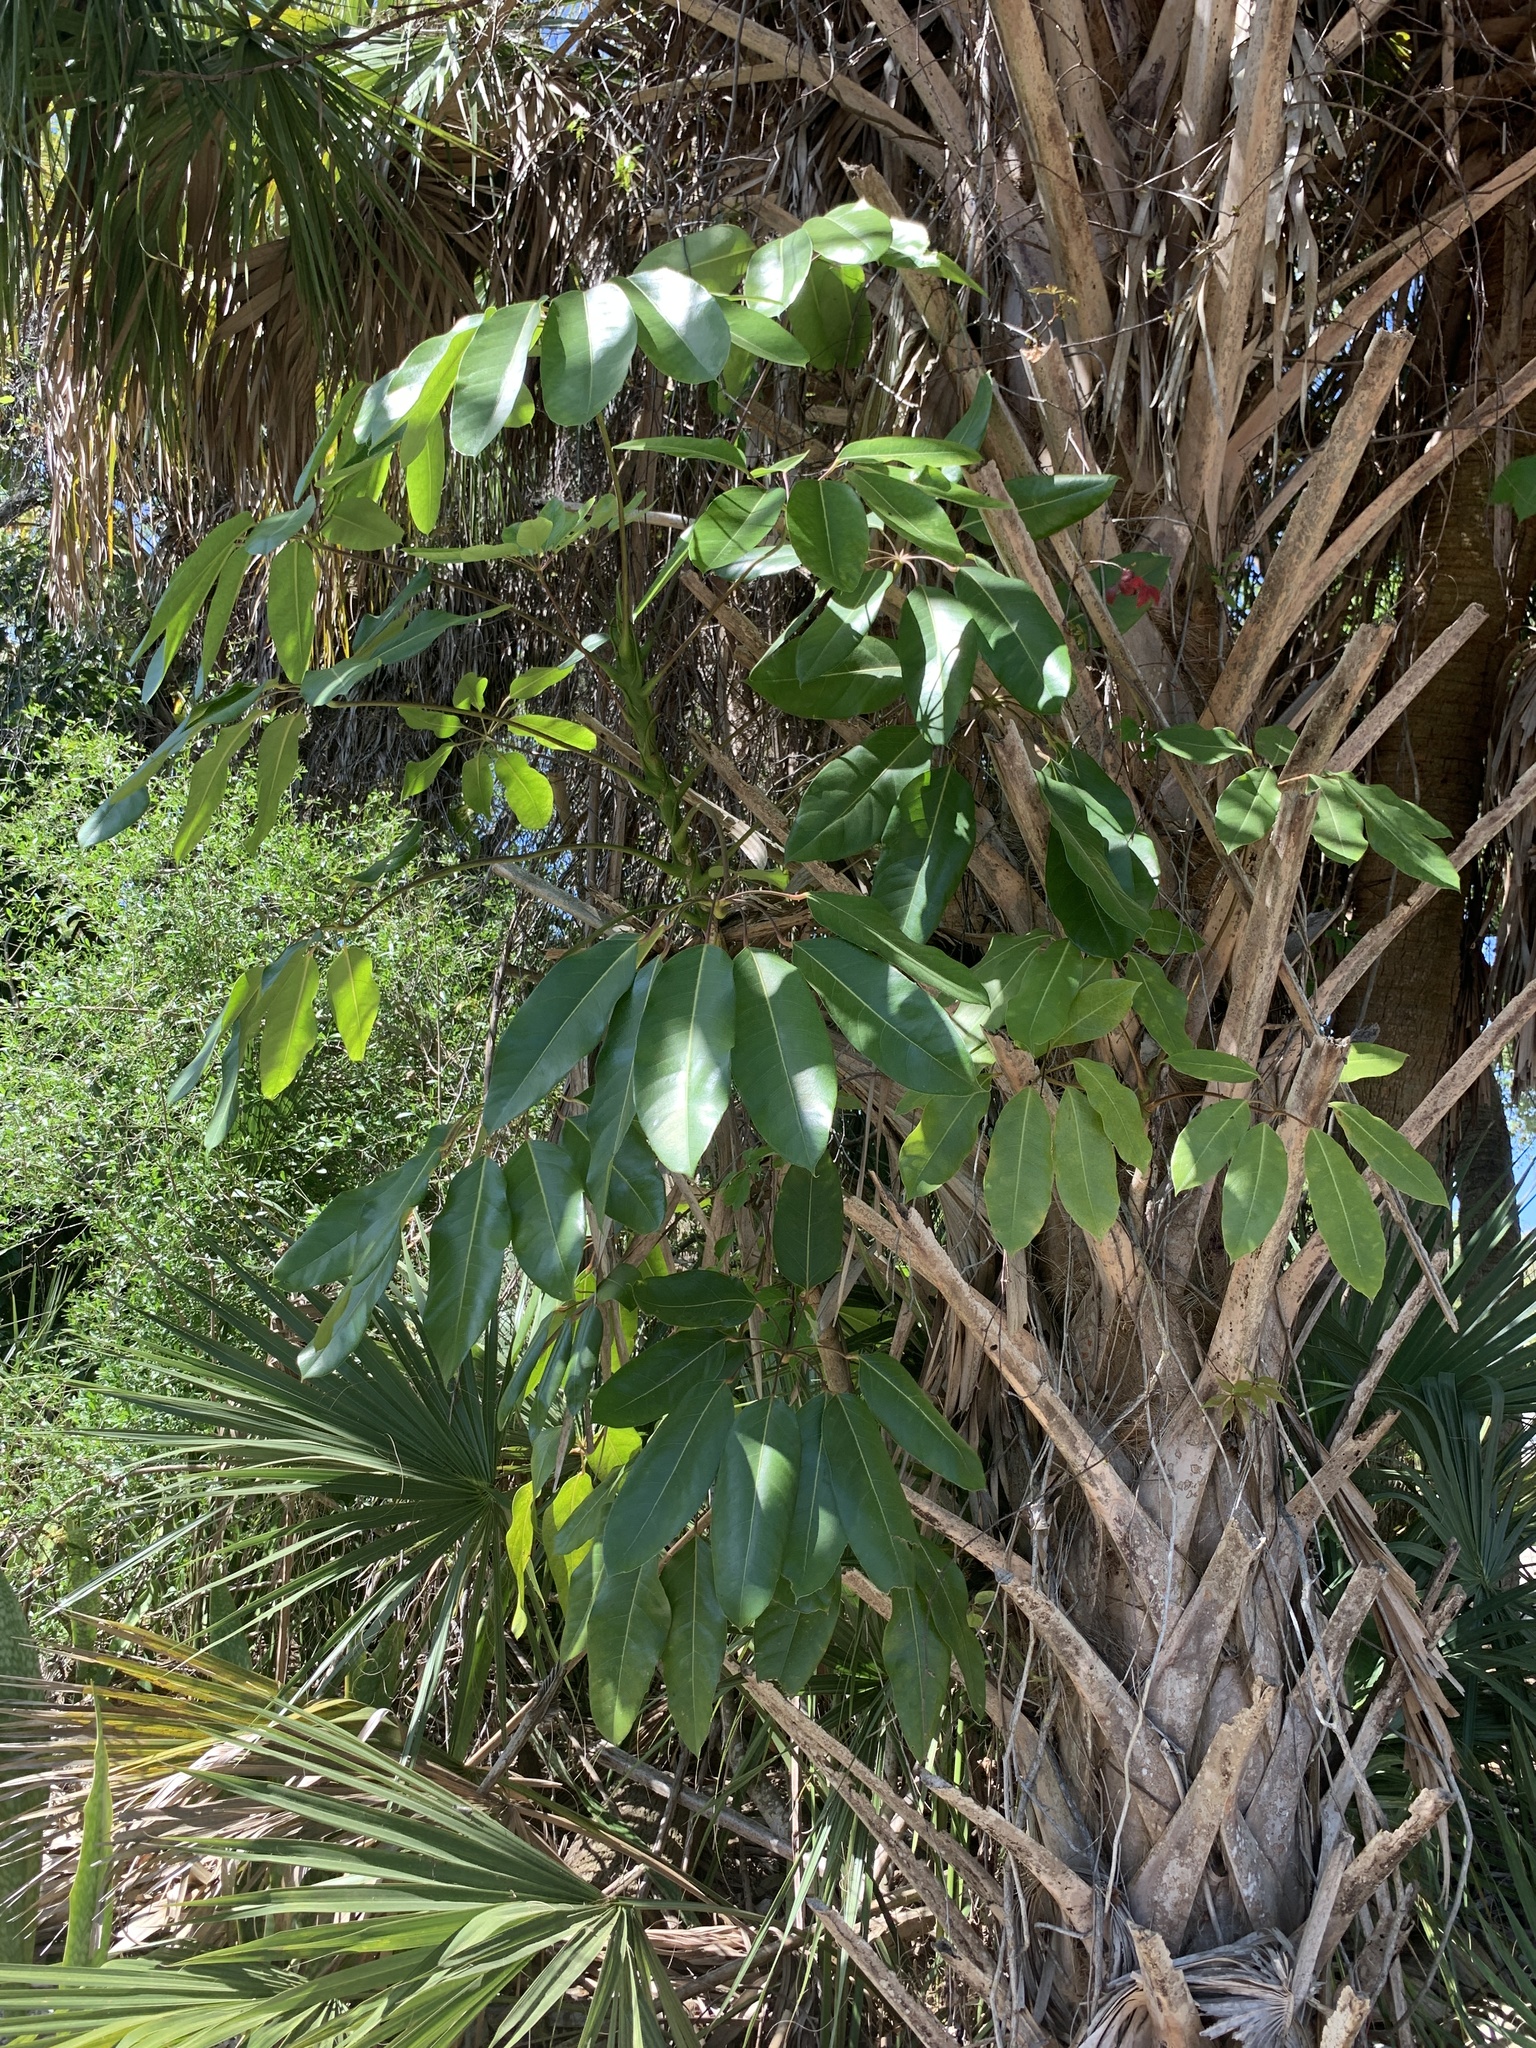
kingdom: Plantae
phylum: Tracheophyta
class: Magnoliopsida
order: Apiales
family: Araliaceae
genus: Heptapleurum
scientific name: Heptapleurum actinophyllum
